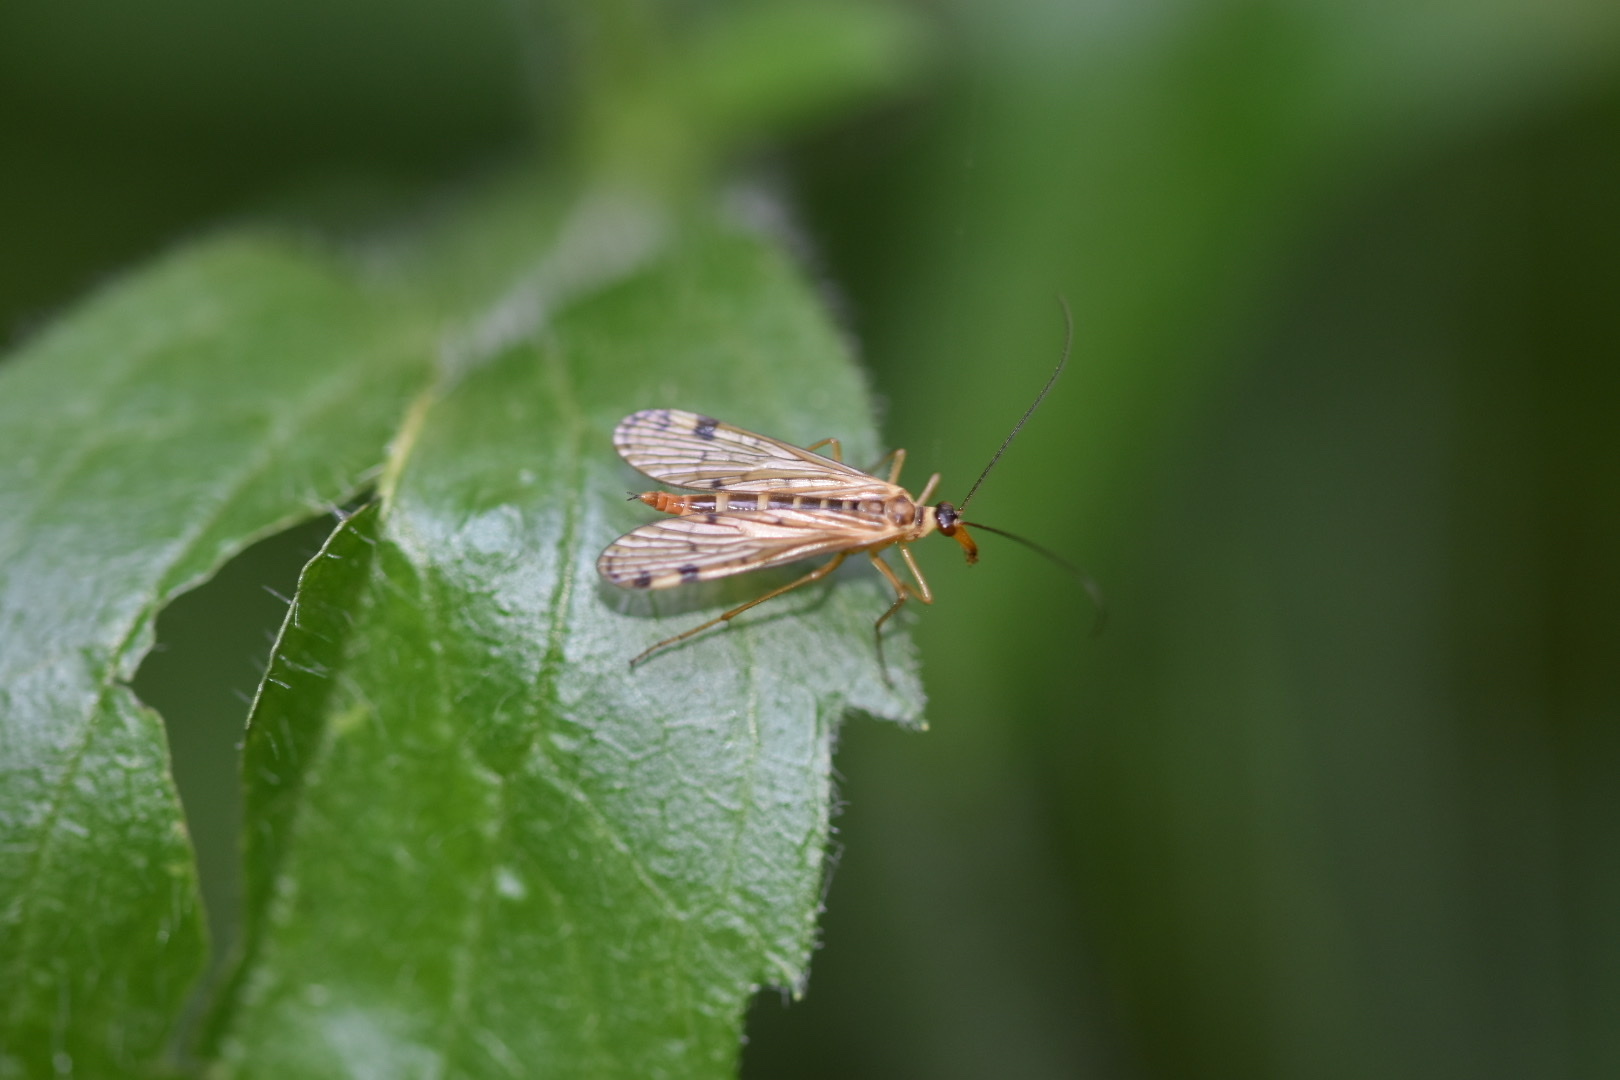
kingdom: Animalia
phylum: Arthropoda
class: Insecta
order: Mecoptera
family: Panorpidae
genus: Panorpa
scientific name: Panorpa alpina
